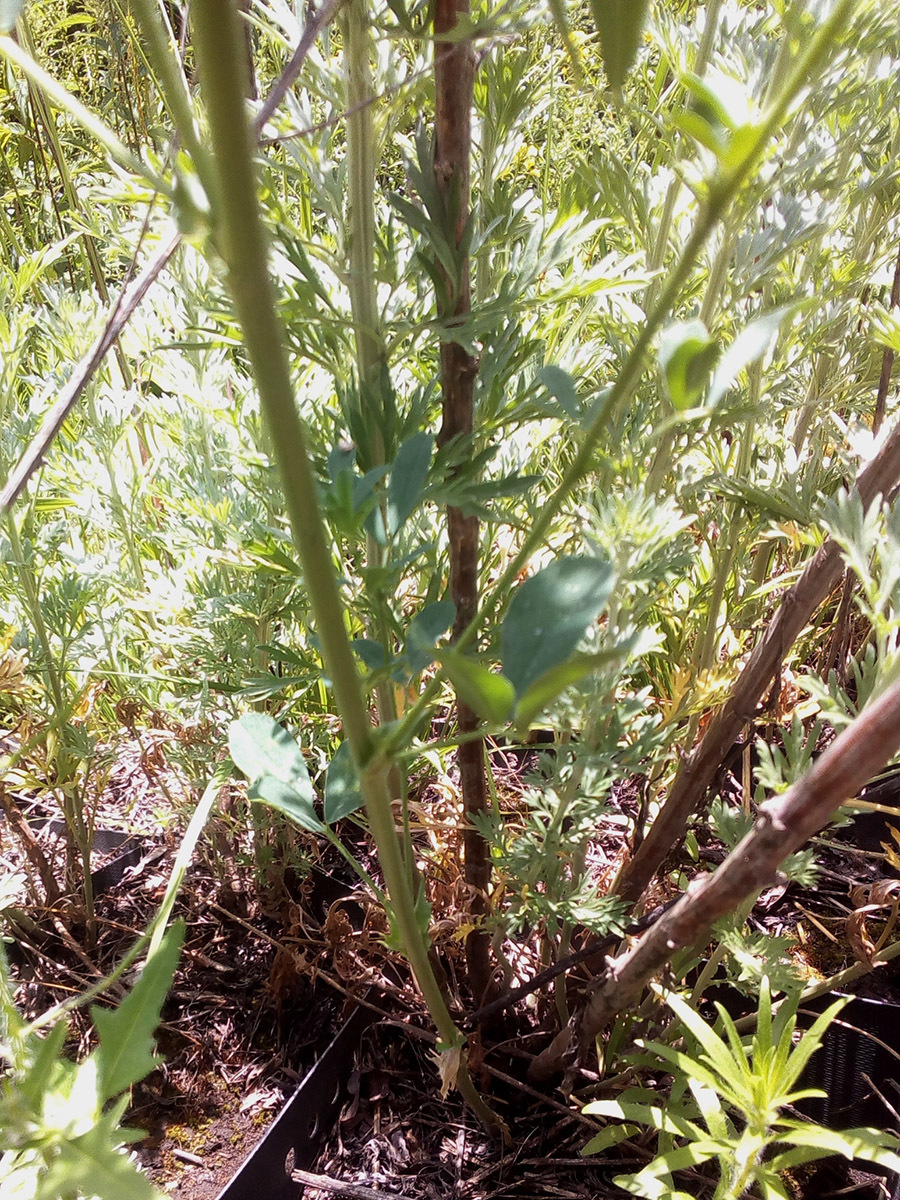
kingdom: Plantae
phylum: Tracheophyta
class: Magnoliopsida
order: Fabales
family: Fabaceae
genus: Medicago
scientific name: Medicago sativa
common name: Alfalfa
